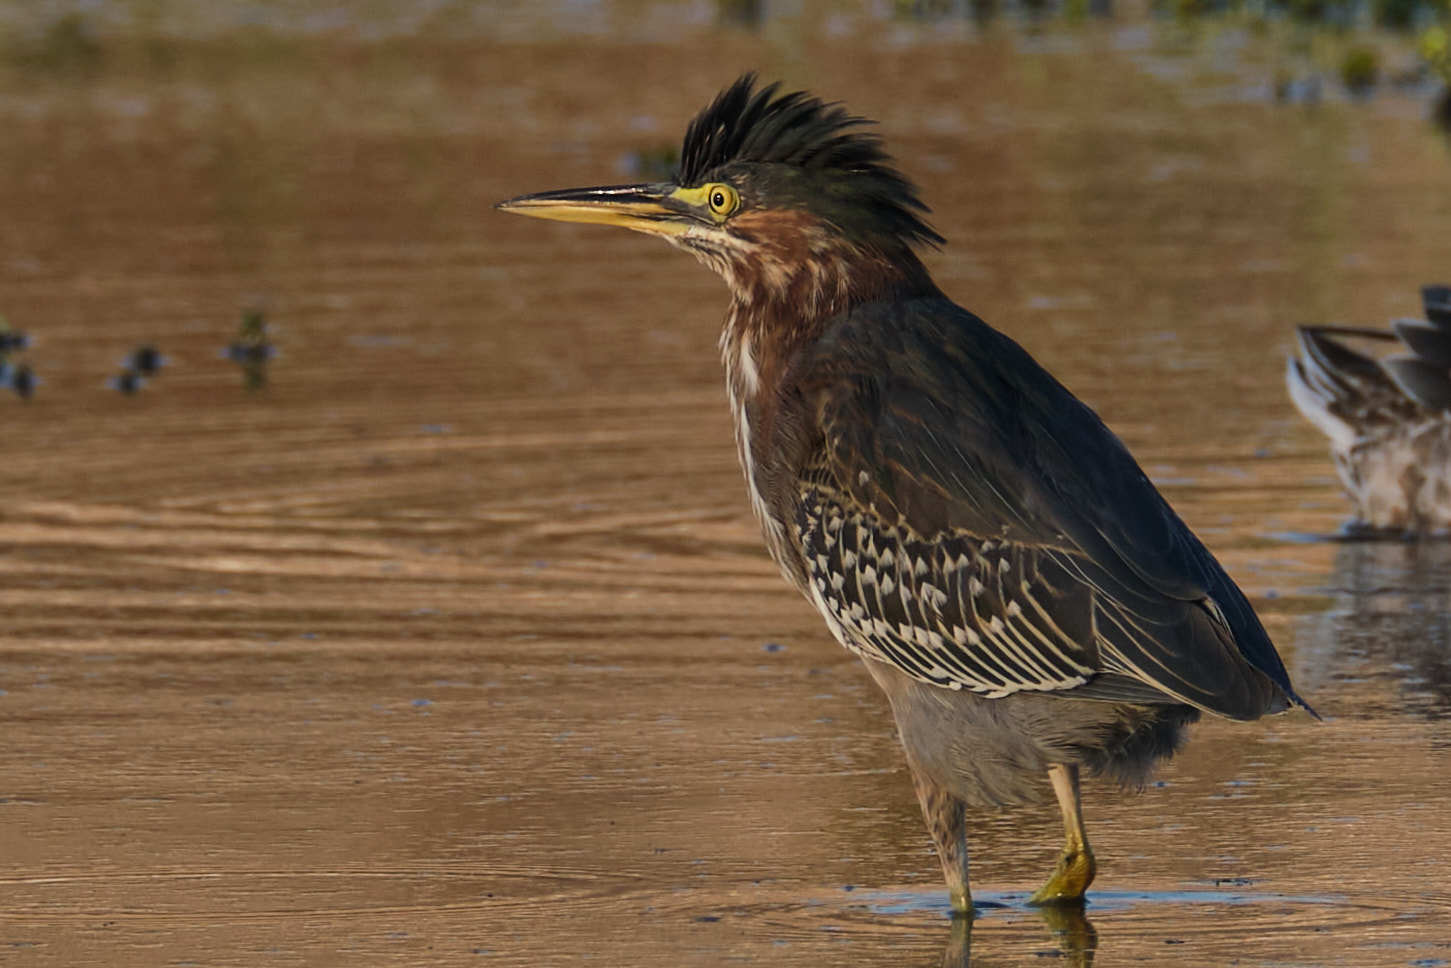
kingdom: Animalia
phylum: Chordata
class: Aves
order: Pelecaniformes
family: Ardeidae
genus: Butorides
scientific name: Butorides virescens
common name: Green heron
